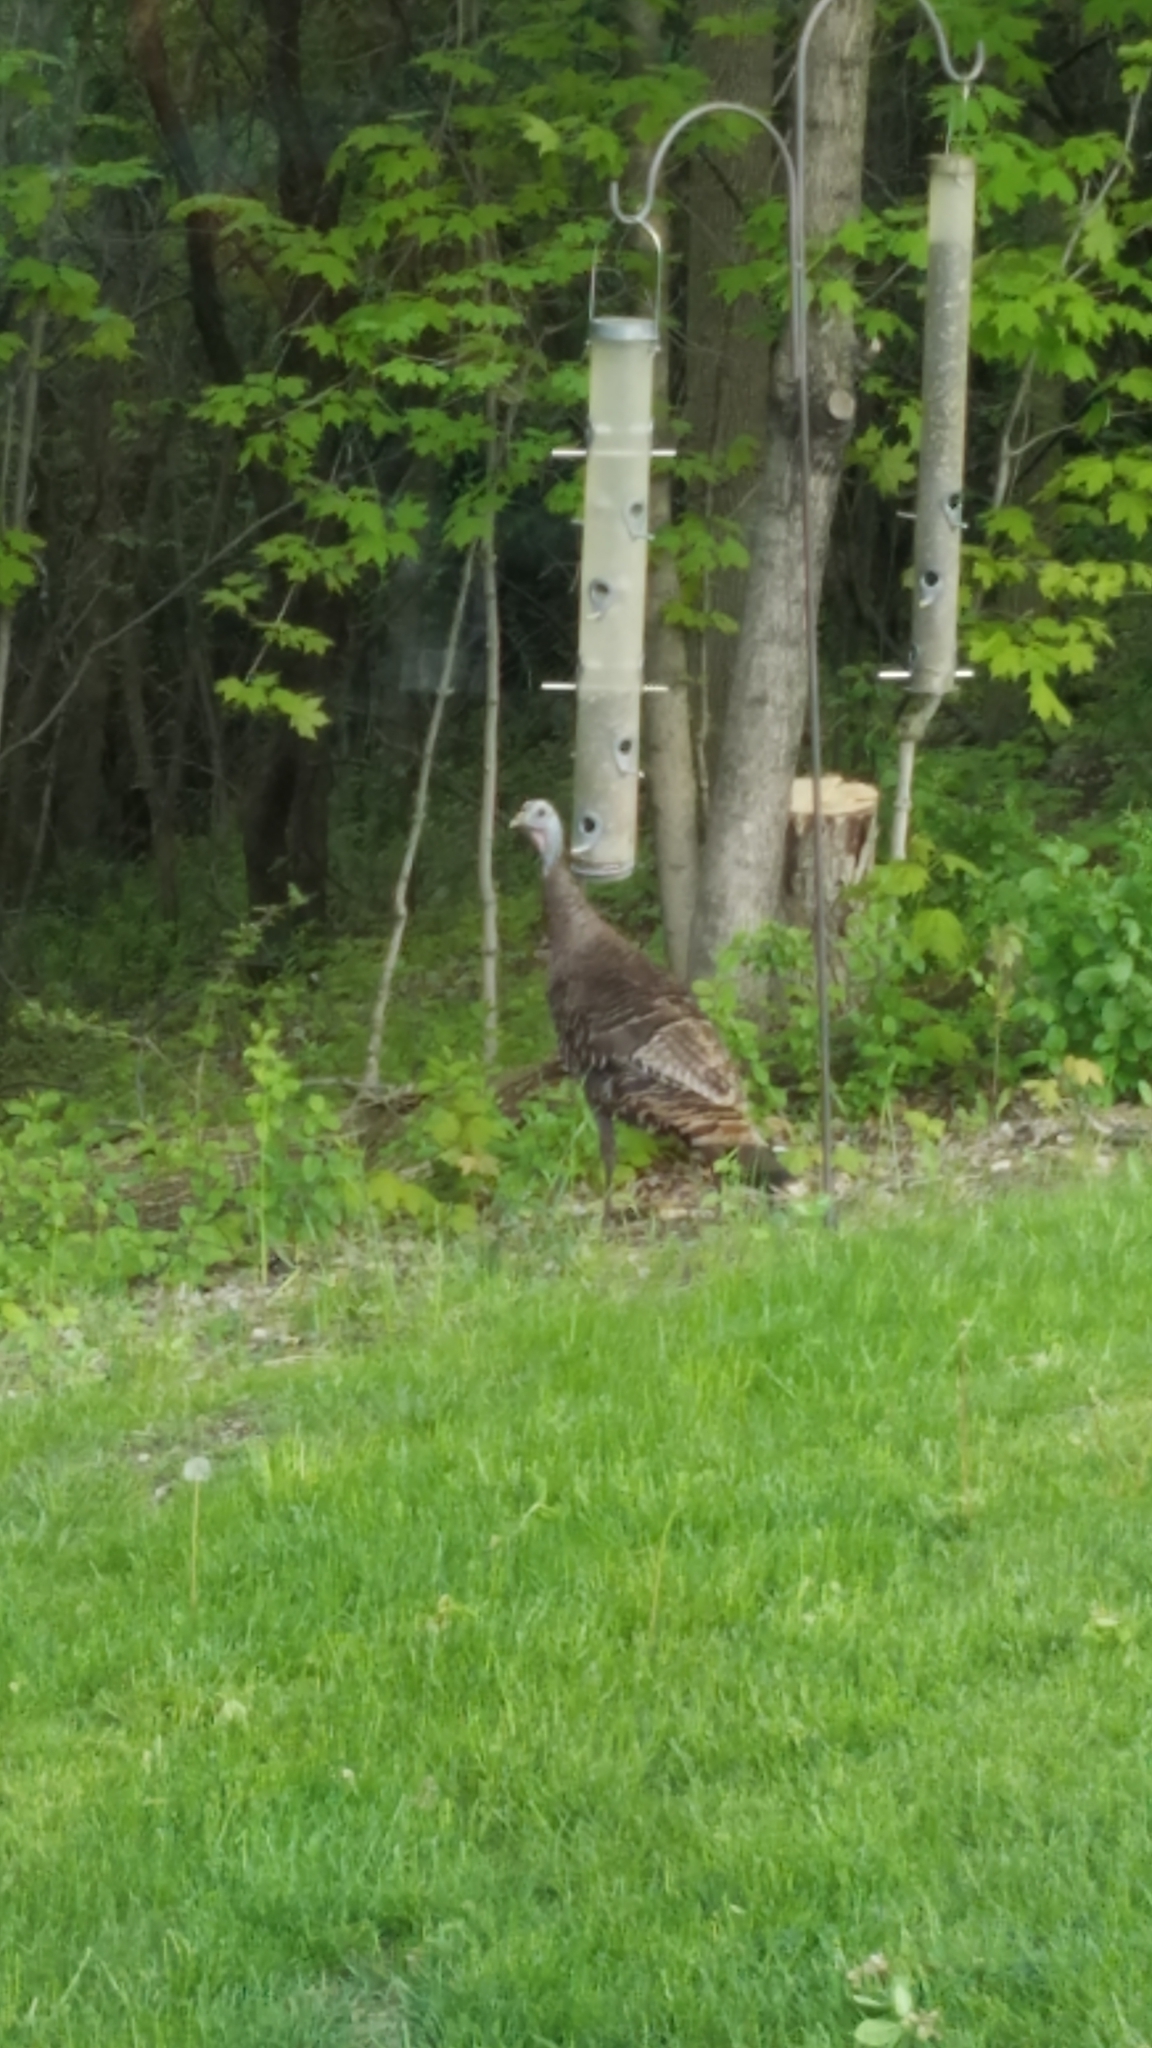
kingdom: Animalia
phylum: Chordata
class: Aves
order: Galliformes
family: Phasianidae
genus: Meleagris
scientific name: Meleagris gallopavo
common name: Wild turkey
